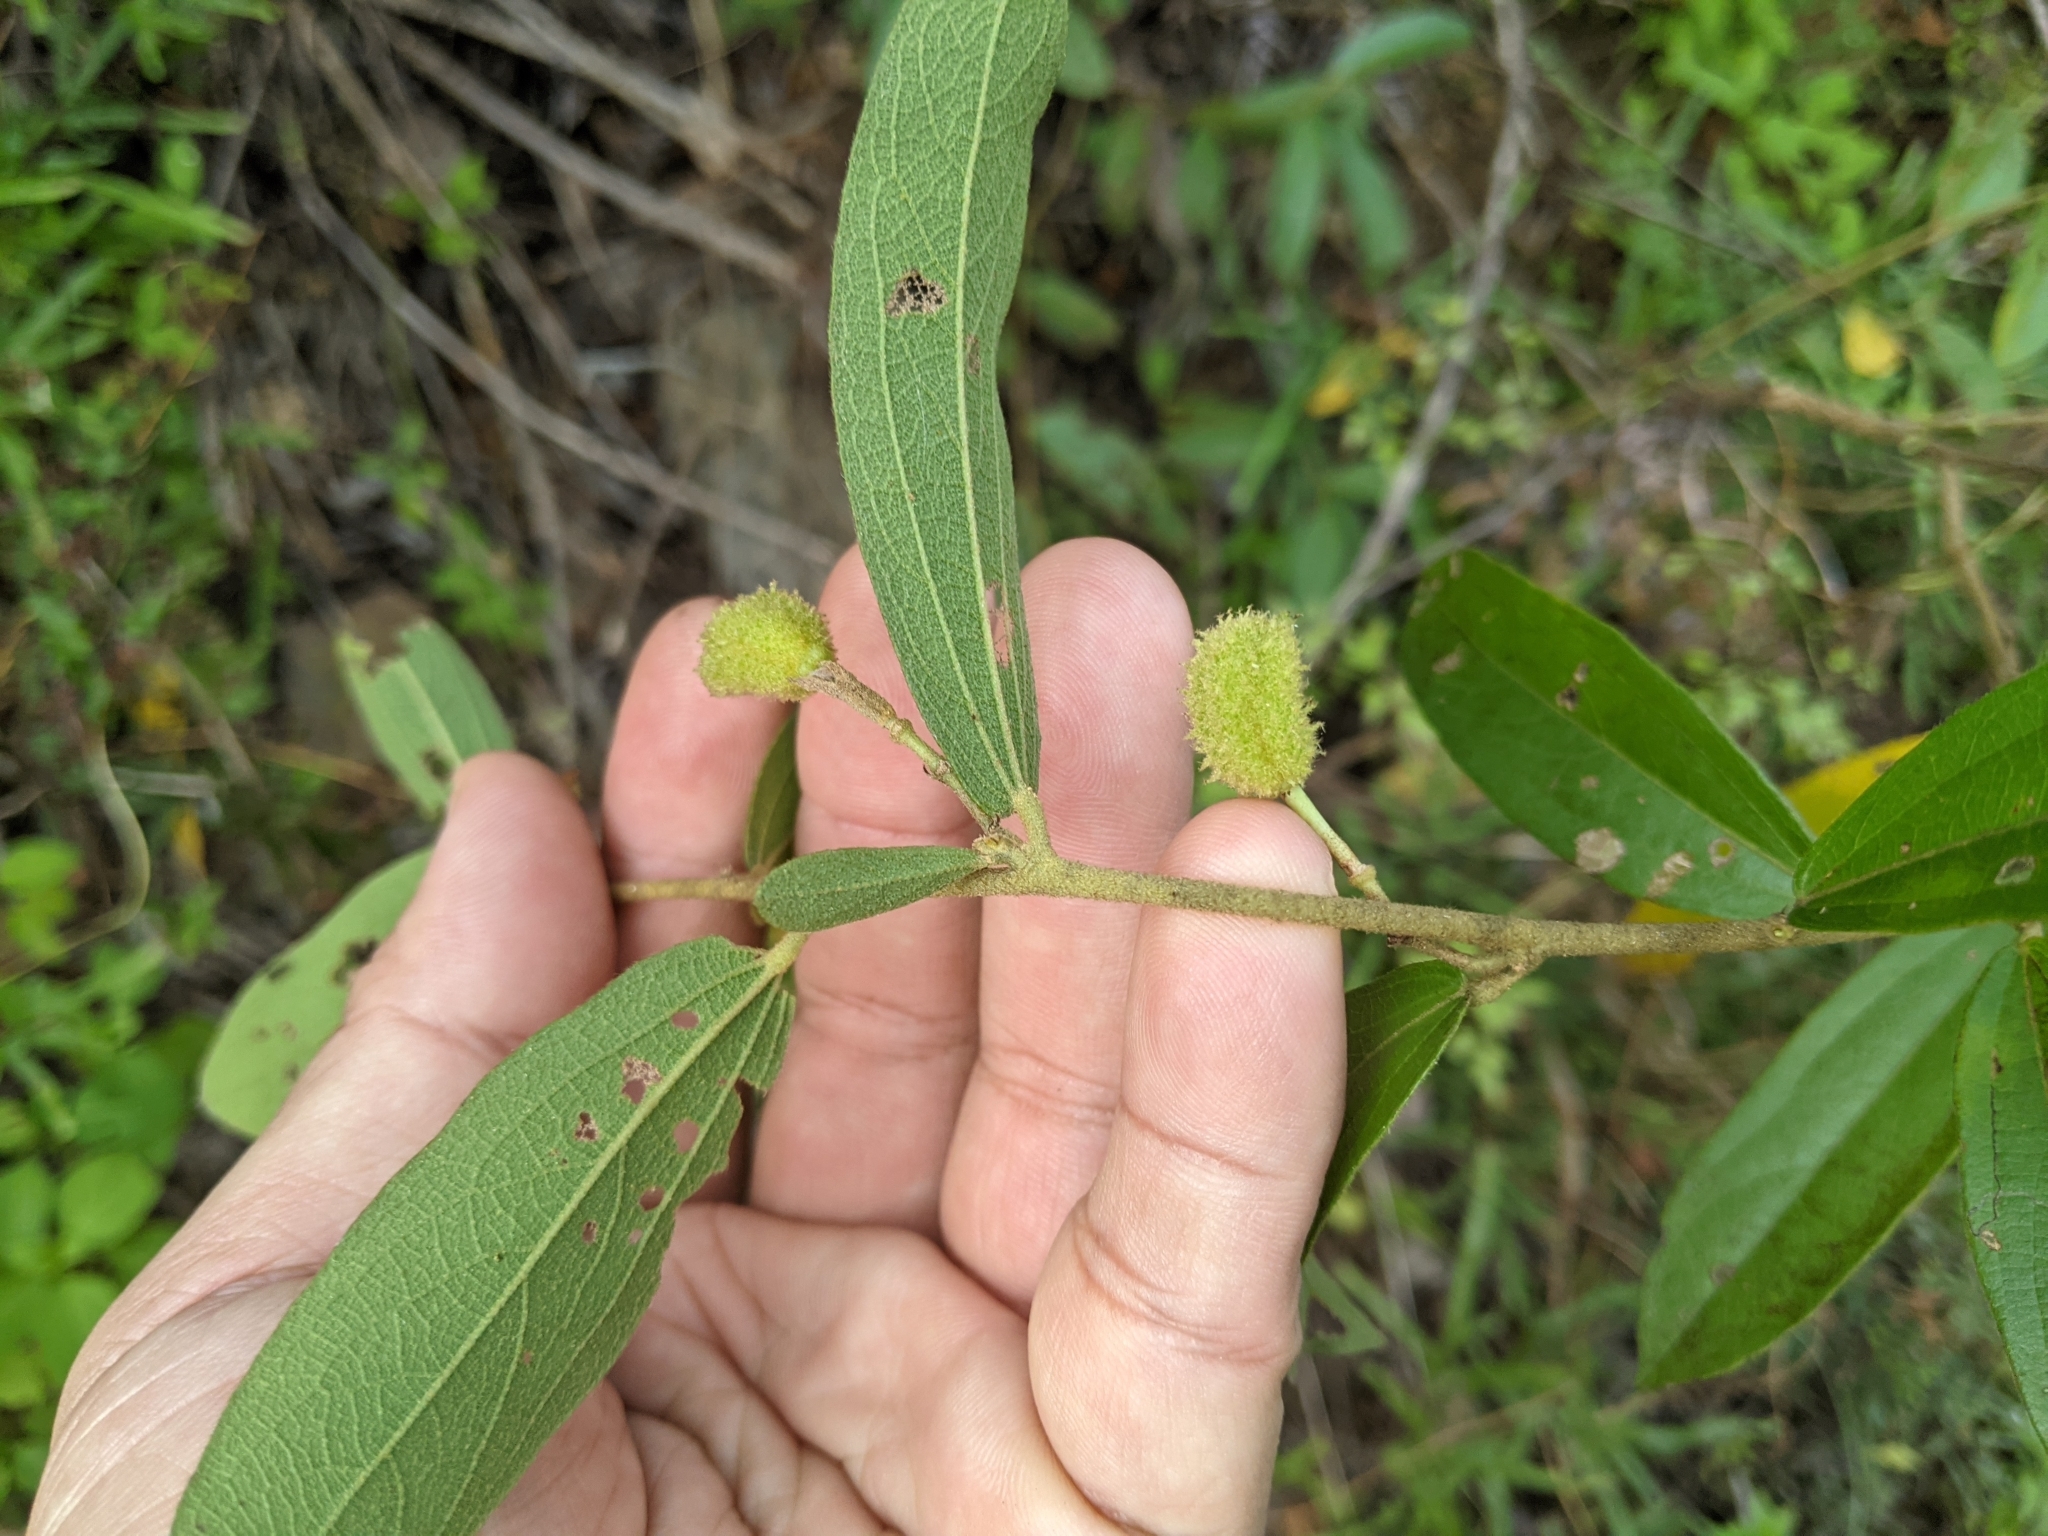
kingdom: Plantae
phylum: Tracheophyta
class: Magnoliopsida
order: Malvales
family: Malvaceae
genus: Helicteres
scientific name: Helicteres angustifolia
